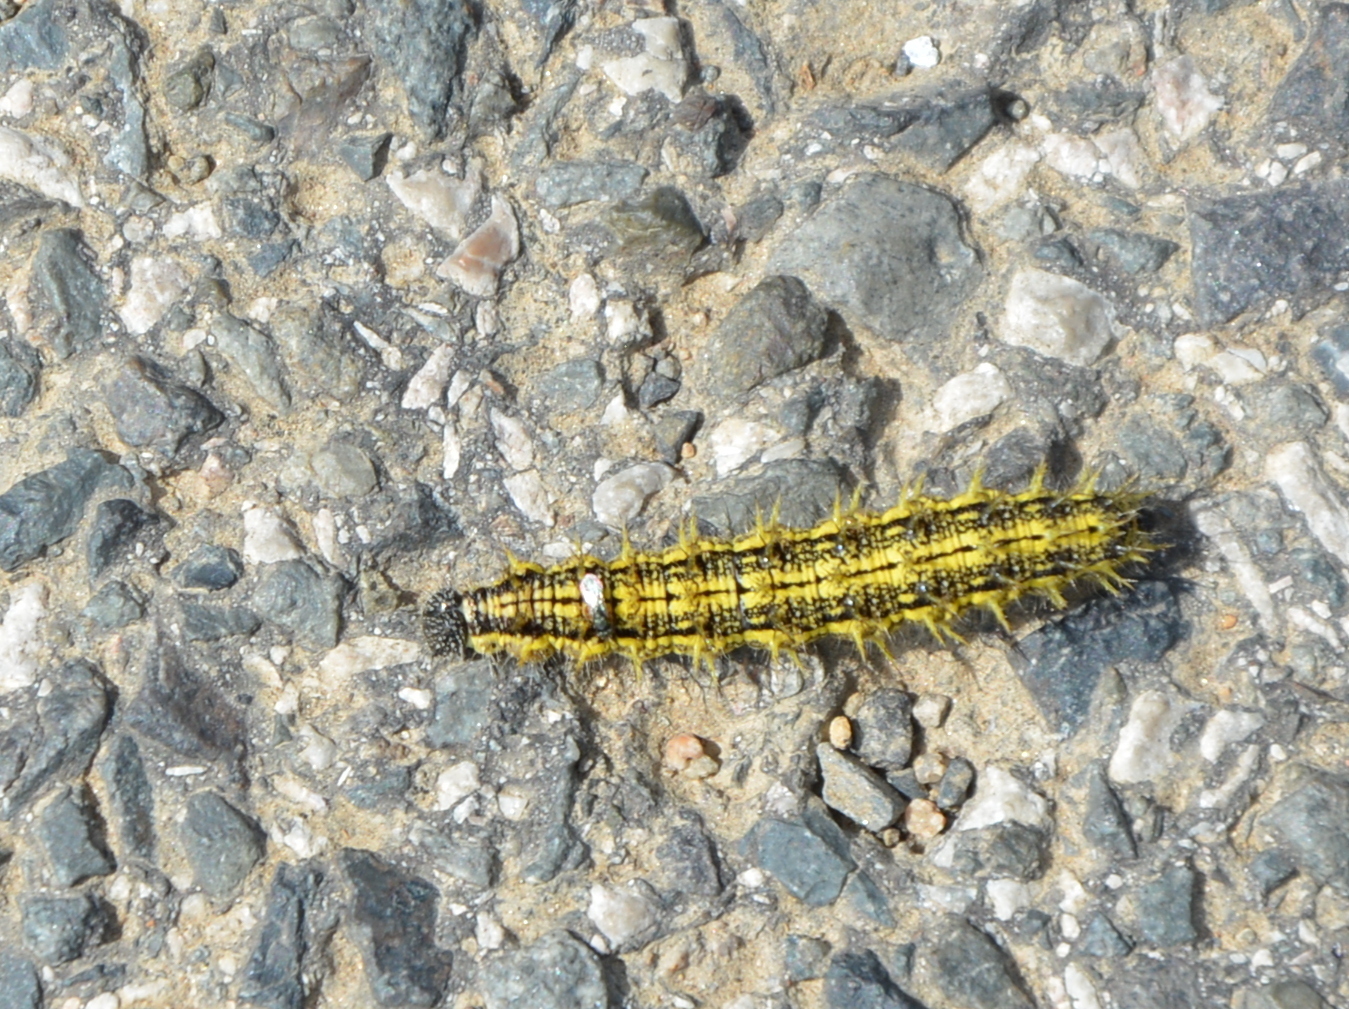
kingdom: Animalia
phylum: Arthropoda
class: Insecta
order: Lepidoptera
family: Nymphalidae
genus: Aglais
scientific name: Aglais urticae
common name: Small tortoiseshell
